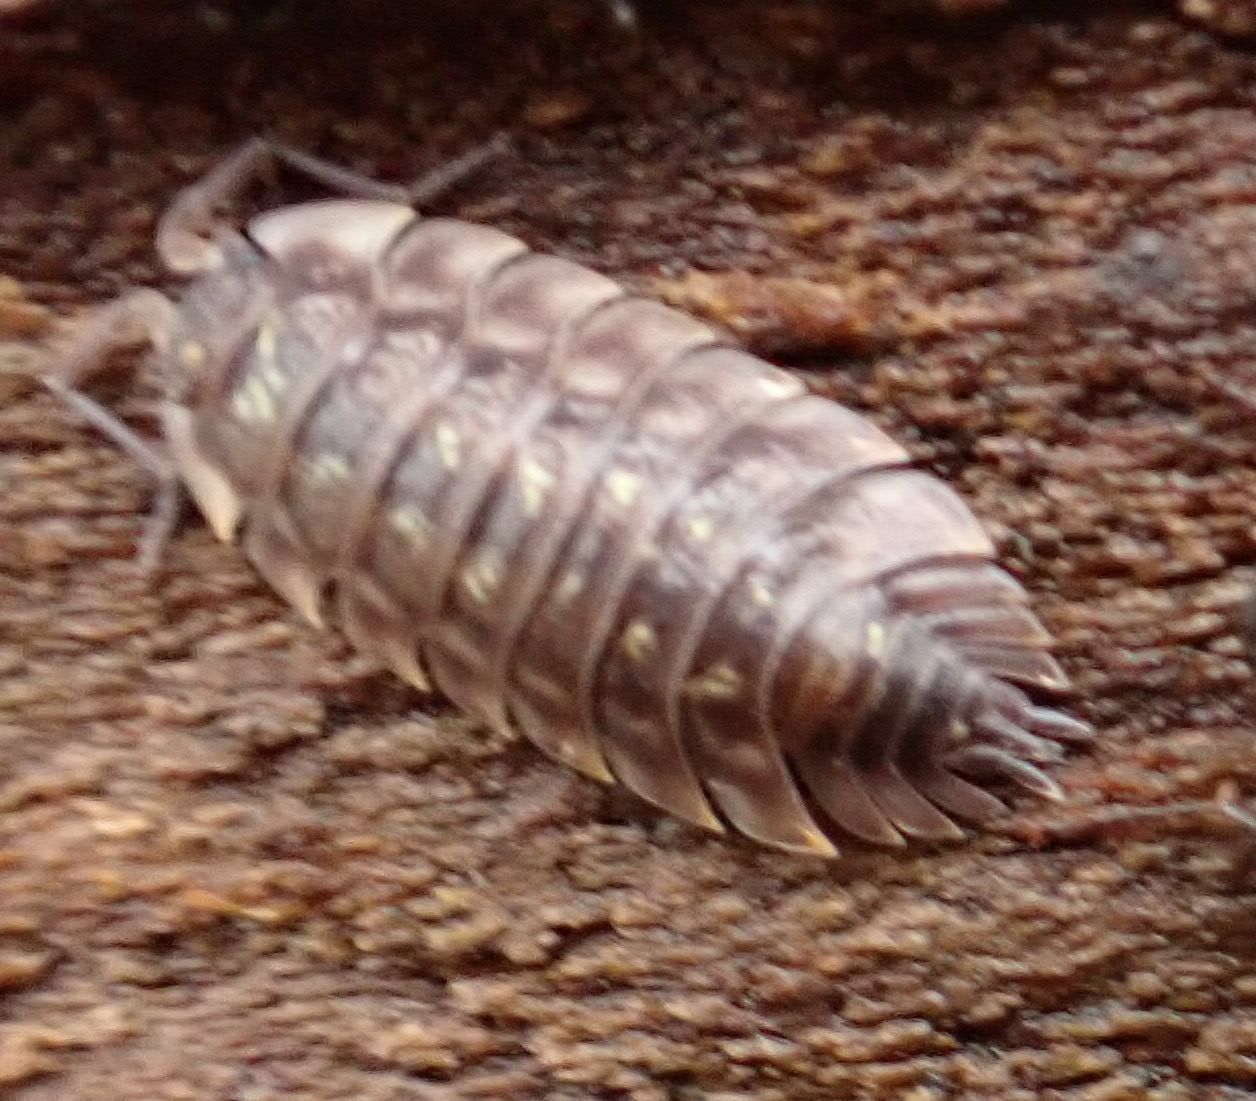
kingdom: Animalia
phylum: Arthropoda
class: Malacostraca
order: Isopoda
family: Oniscidae
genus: Oniscus
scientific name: Oniscus asellus
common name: Common shiny woodlouse
